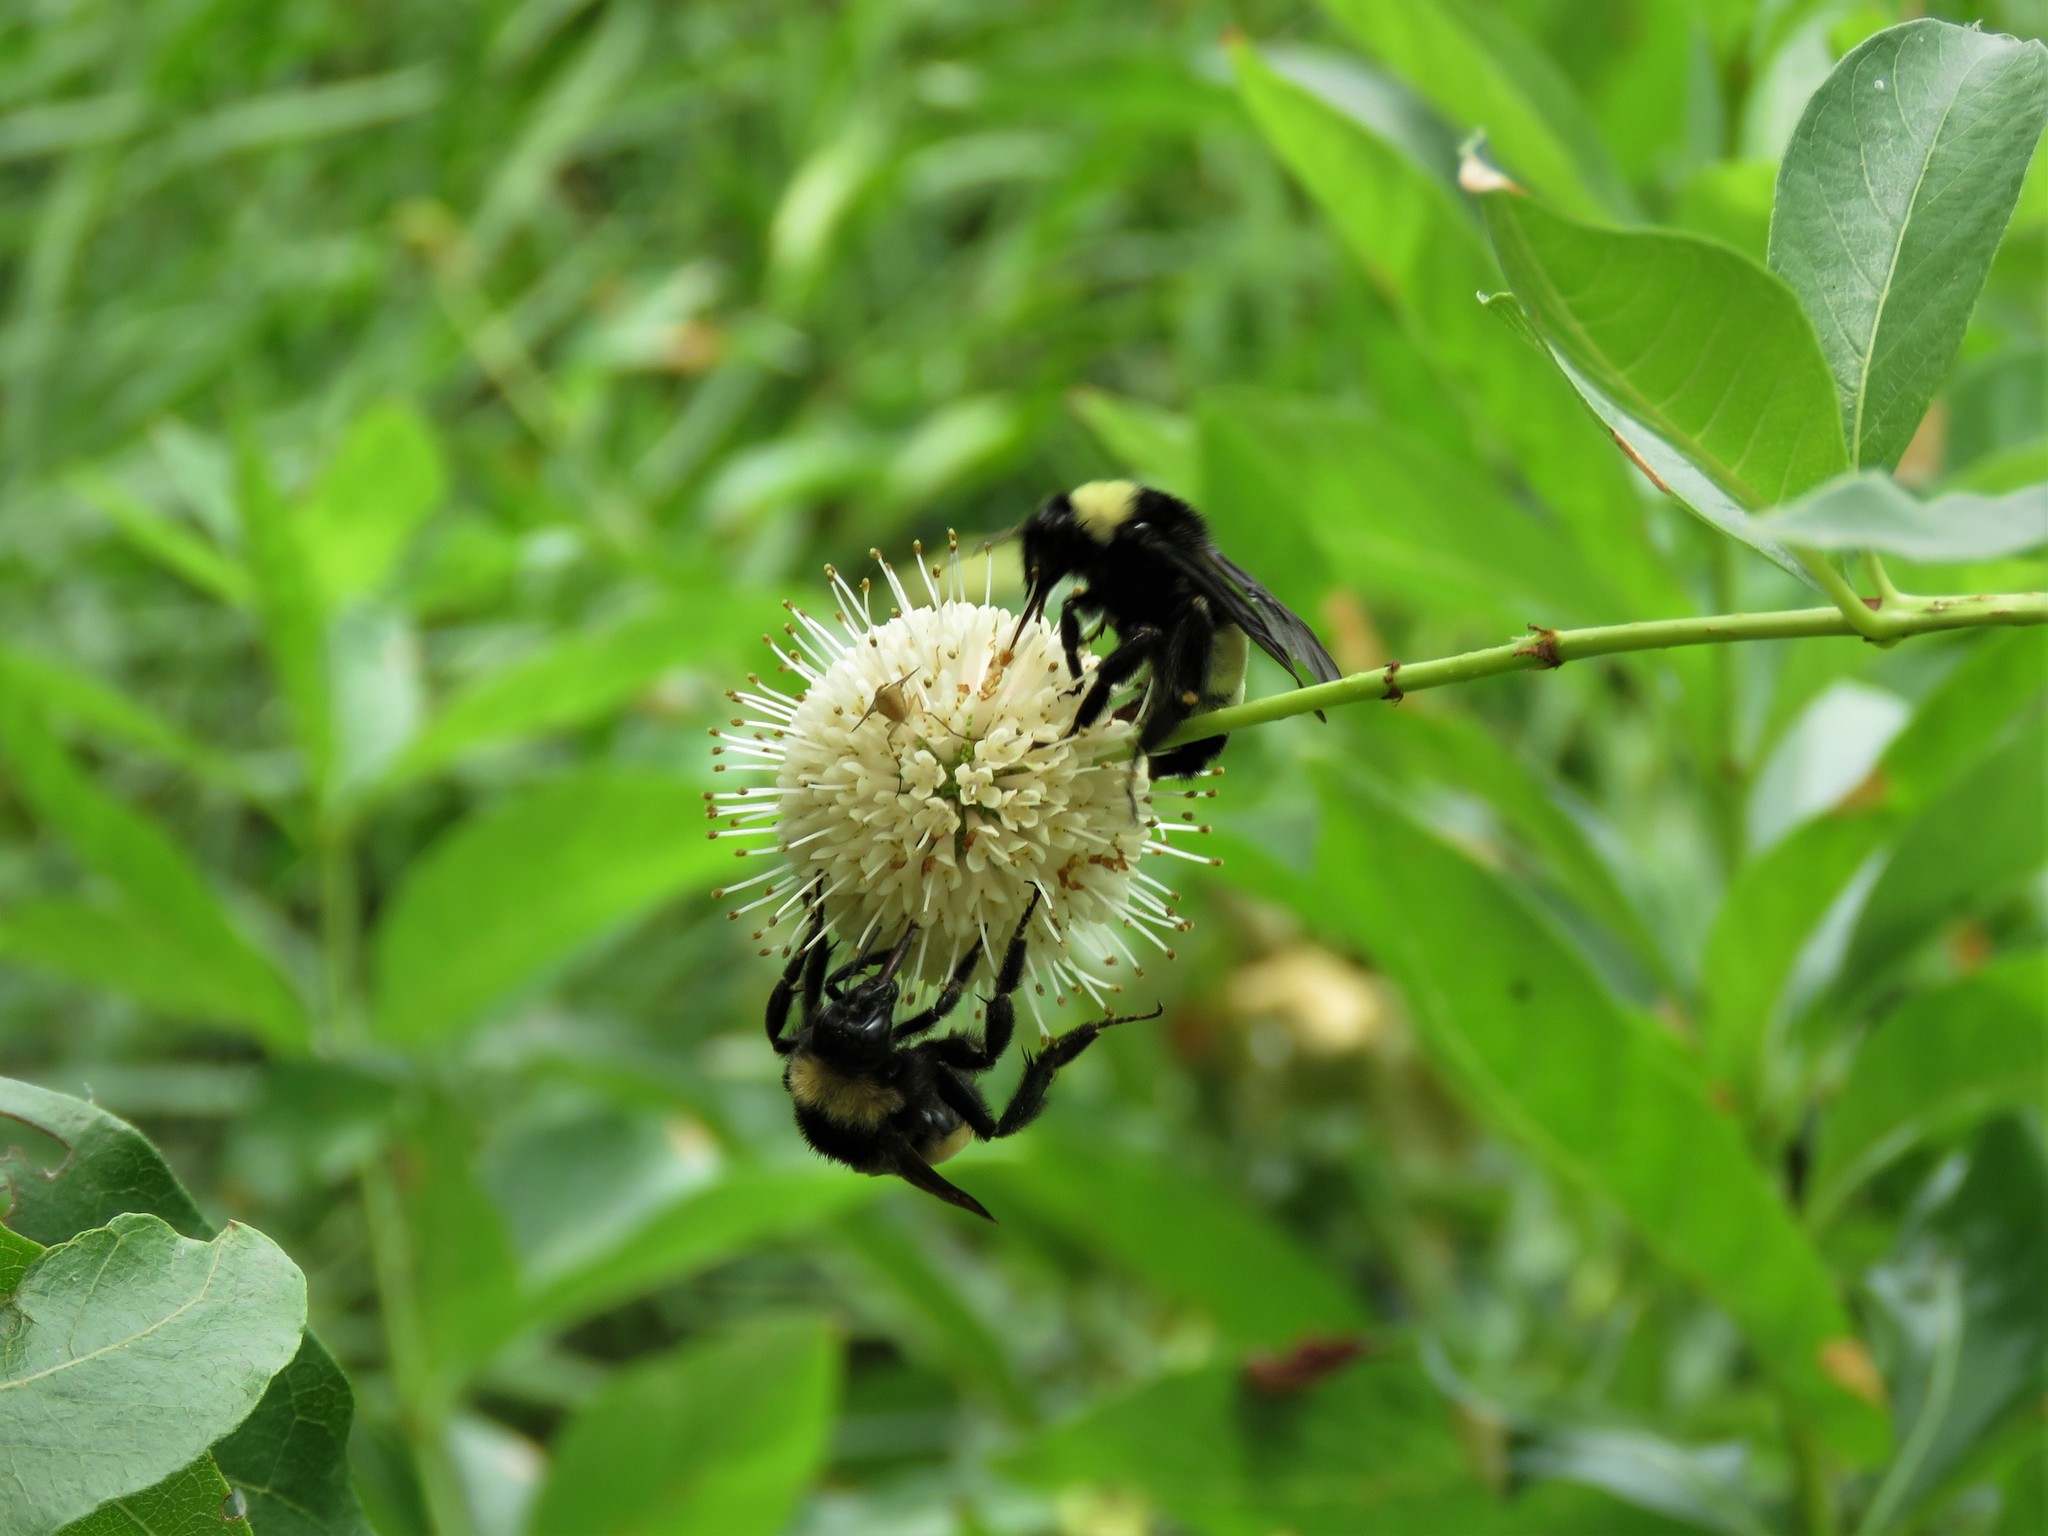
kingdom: Animalia
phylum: Arthropoda
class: Insecta
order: Hymenoptera
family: Apidae
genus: Bombus
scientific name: Bombus pensylvanicus
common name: Bumble bee
